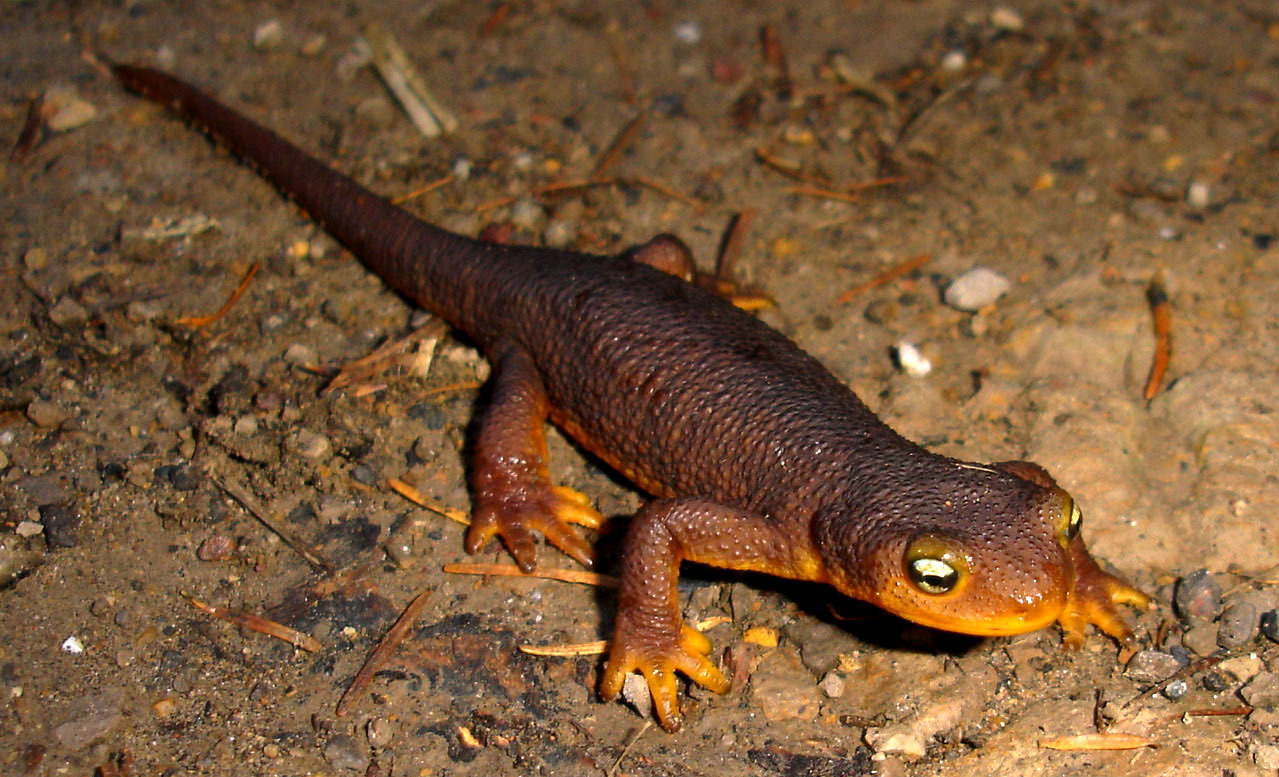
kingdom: Animalia
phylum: Chordata
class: Amphibia
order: Caudata
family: Salamandridae
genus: Taricha
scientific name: Taricha torosa
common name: California newt
